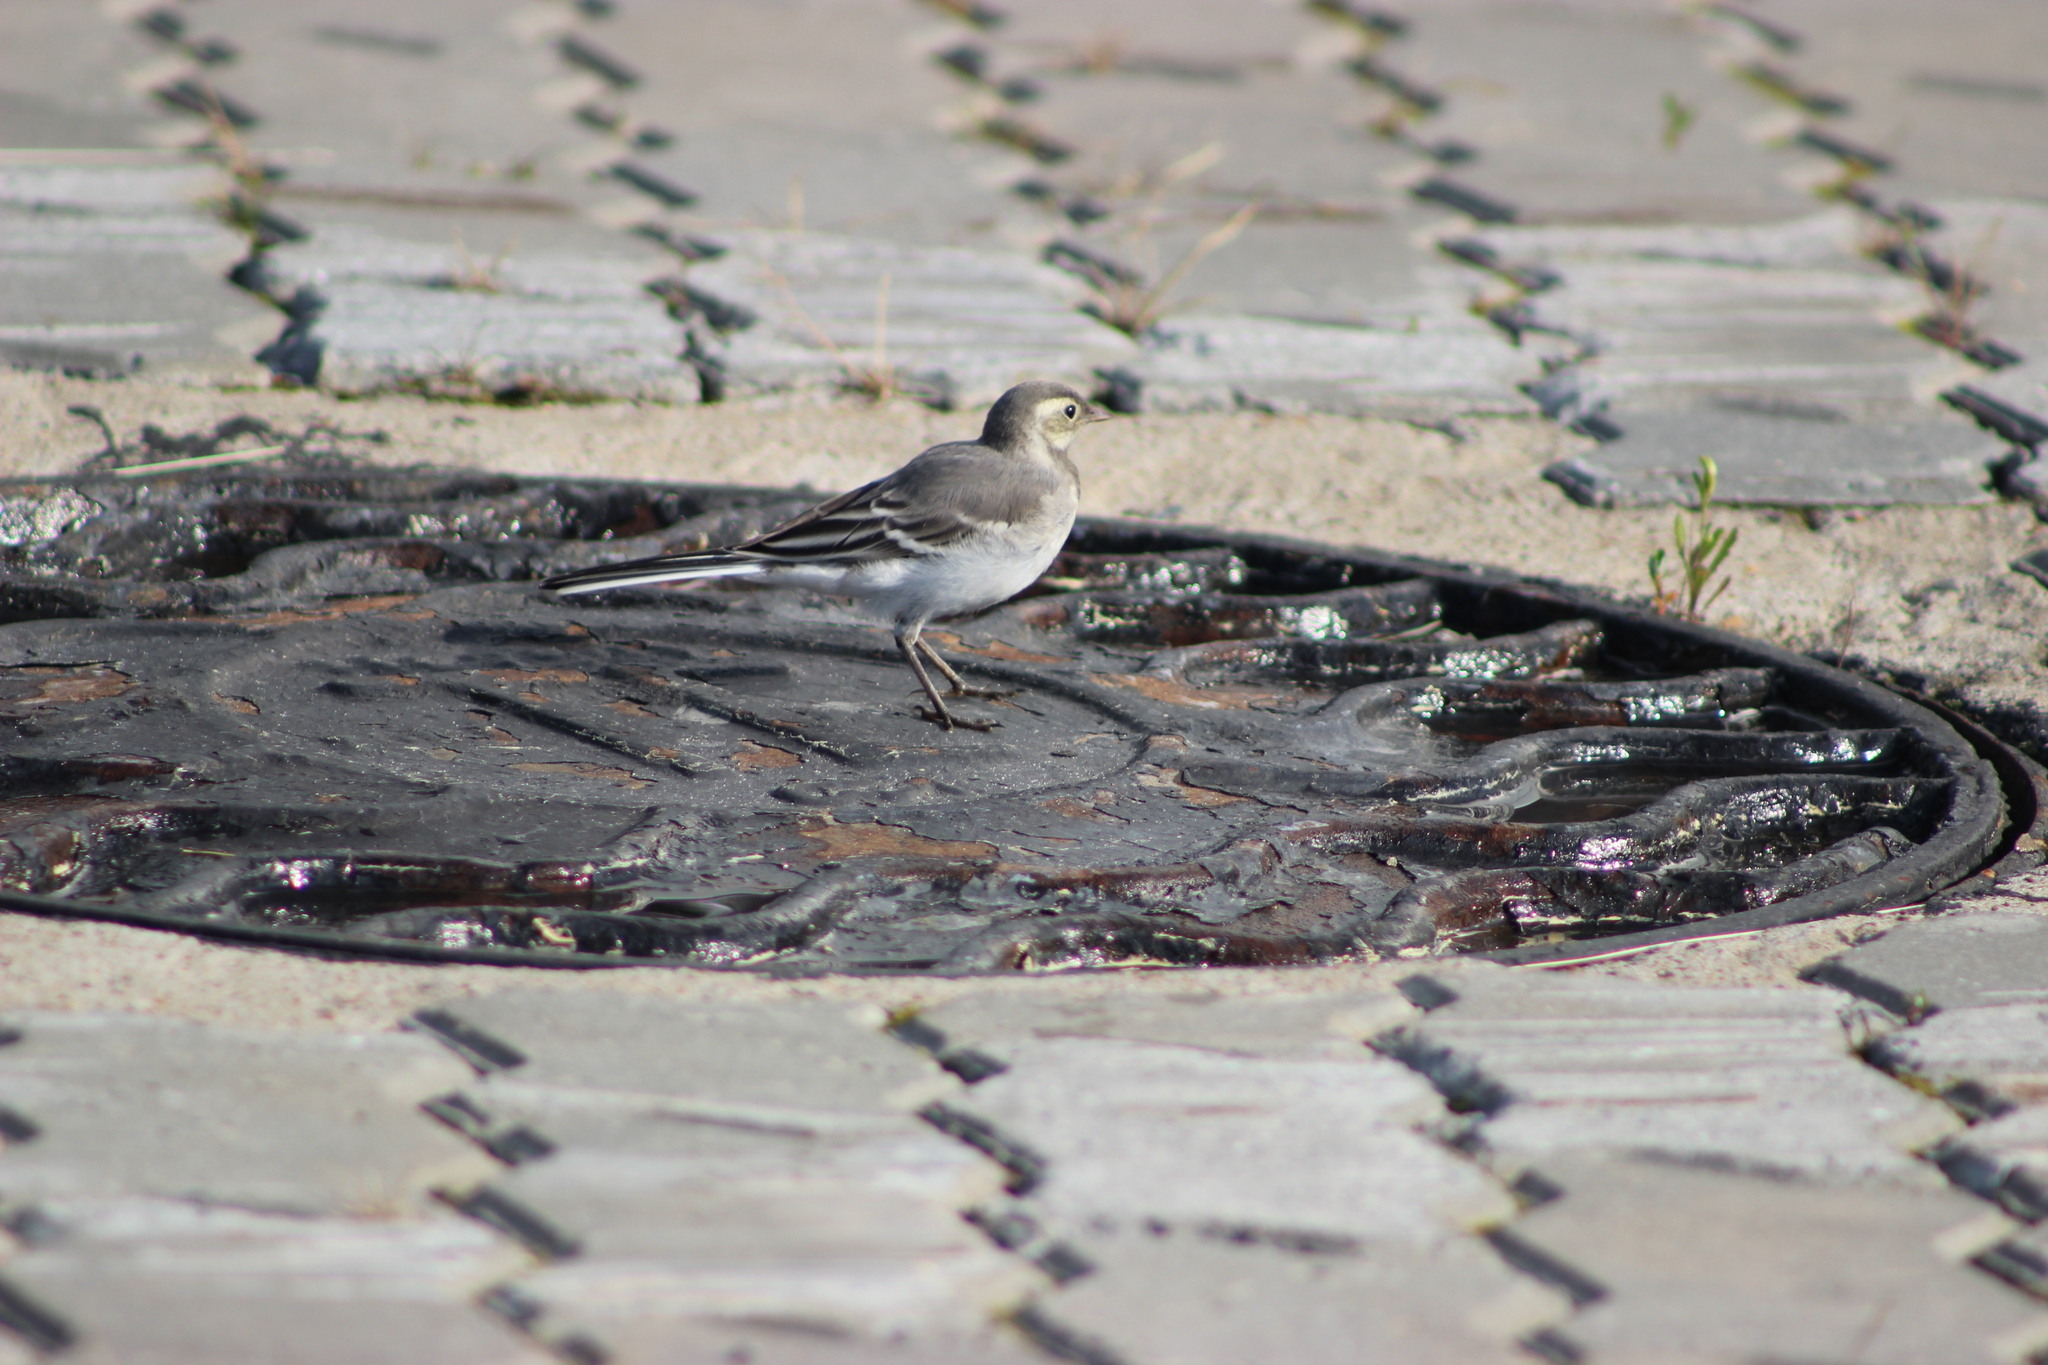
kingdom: Animalia
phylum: Chordata
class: Aves
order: Passeriformes
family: Motacillidae
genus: Motacilla
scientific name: Motacilla alba
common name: White wagtail
